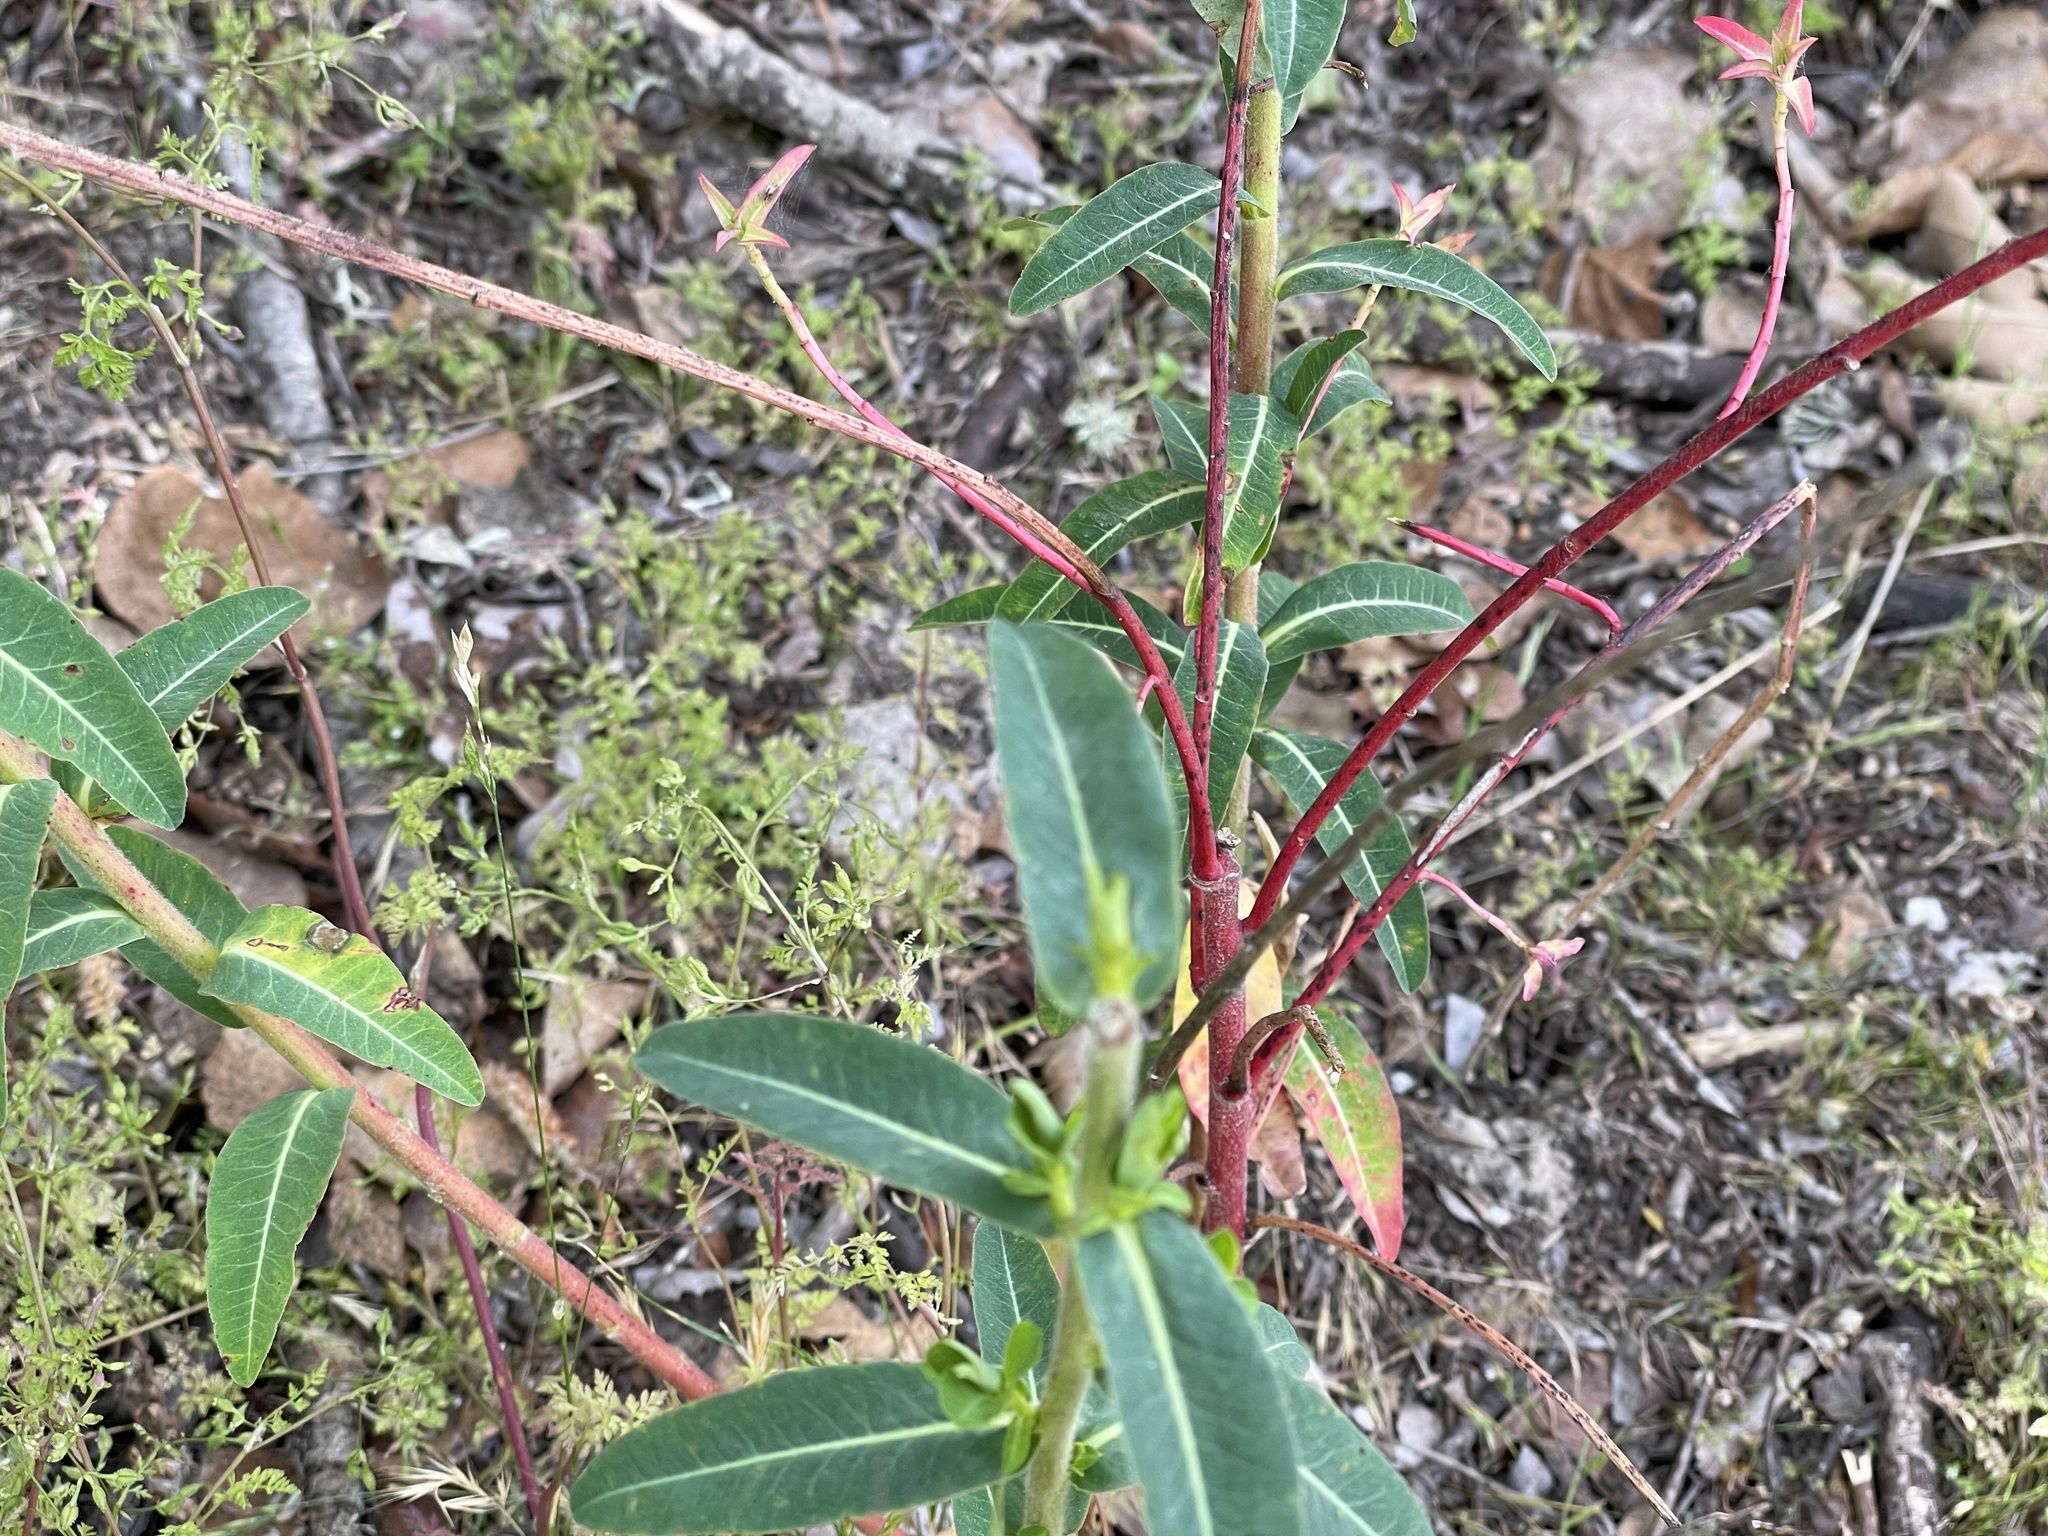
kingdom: Plantae
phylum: Tracheophyta
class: Magnoliopsida
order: Malpighiales
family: Euphorbiaceae
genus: Euphorbia
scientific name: Euphorbia oblongata
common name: Balkan spurge
